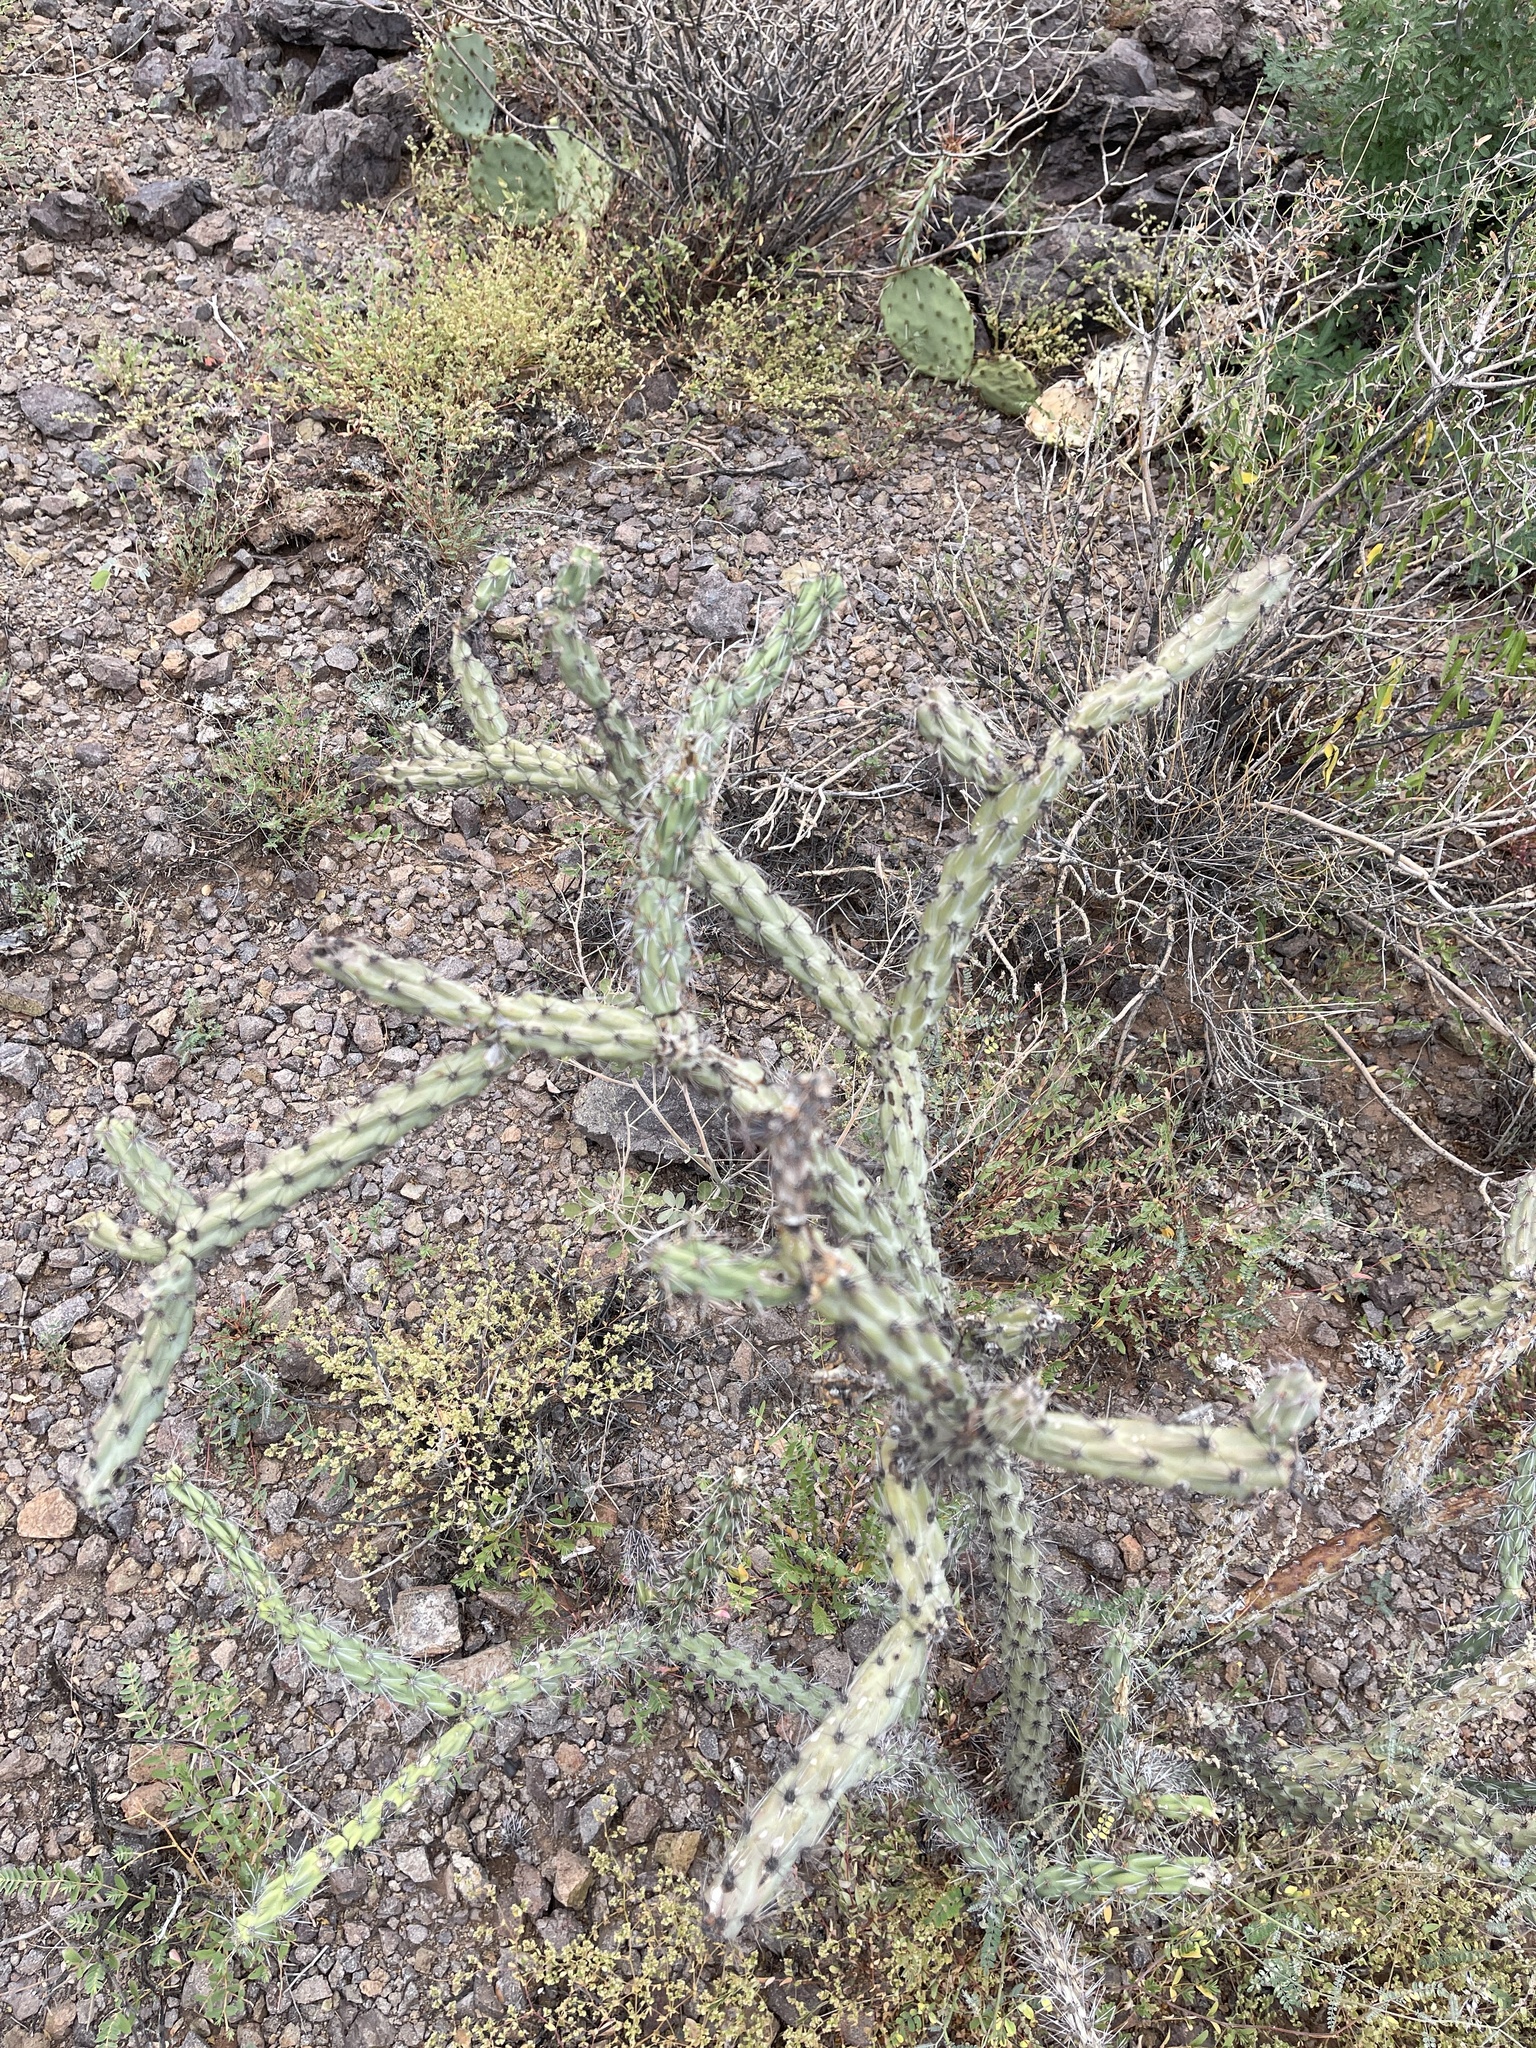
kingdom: Plantae
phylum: Tracheophyta
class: Magnoliopsida
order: Caryophyllales
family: Cactaceae
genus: Cylindropuntia
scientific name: Cylindropuntia acanthocarpa
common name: Buckhorn cholla
